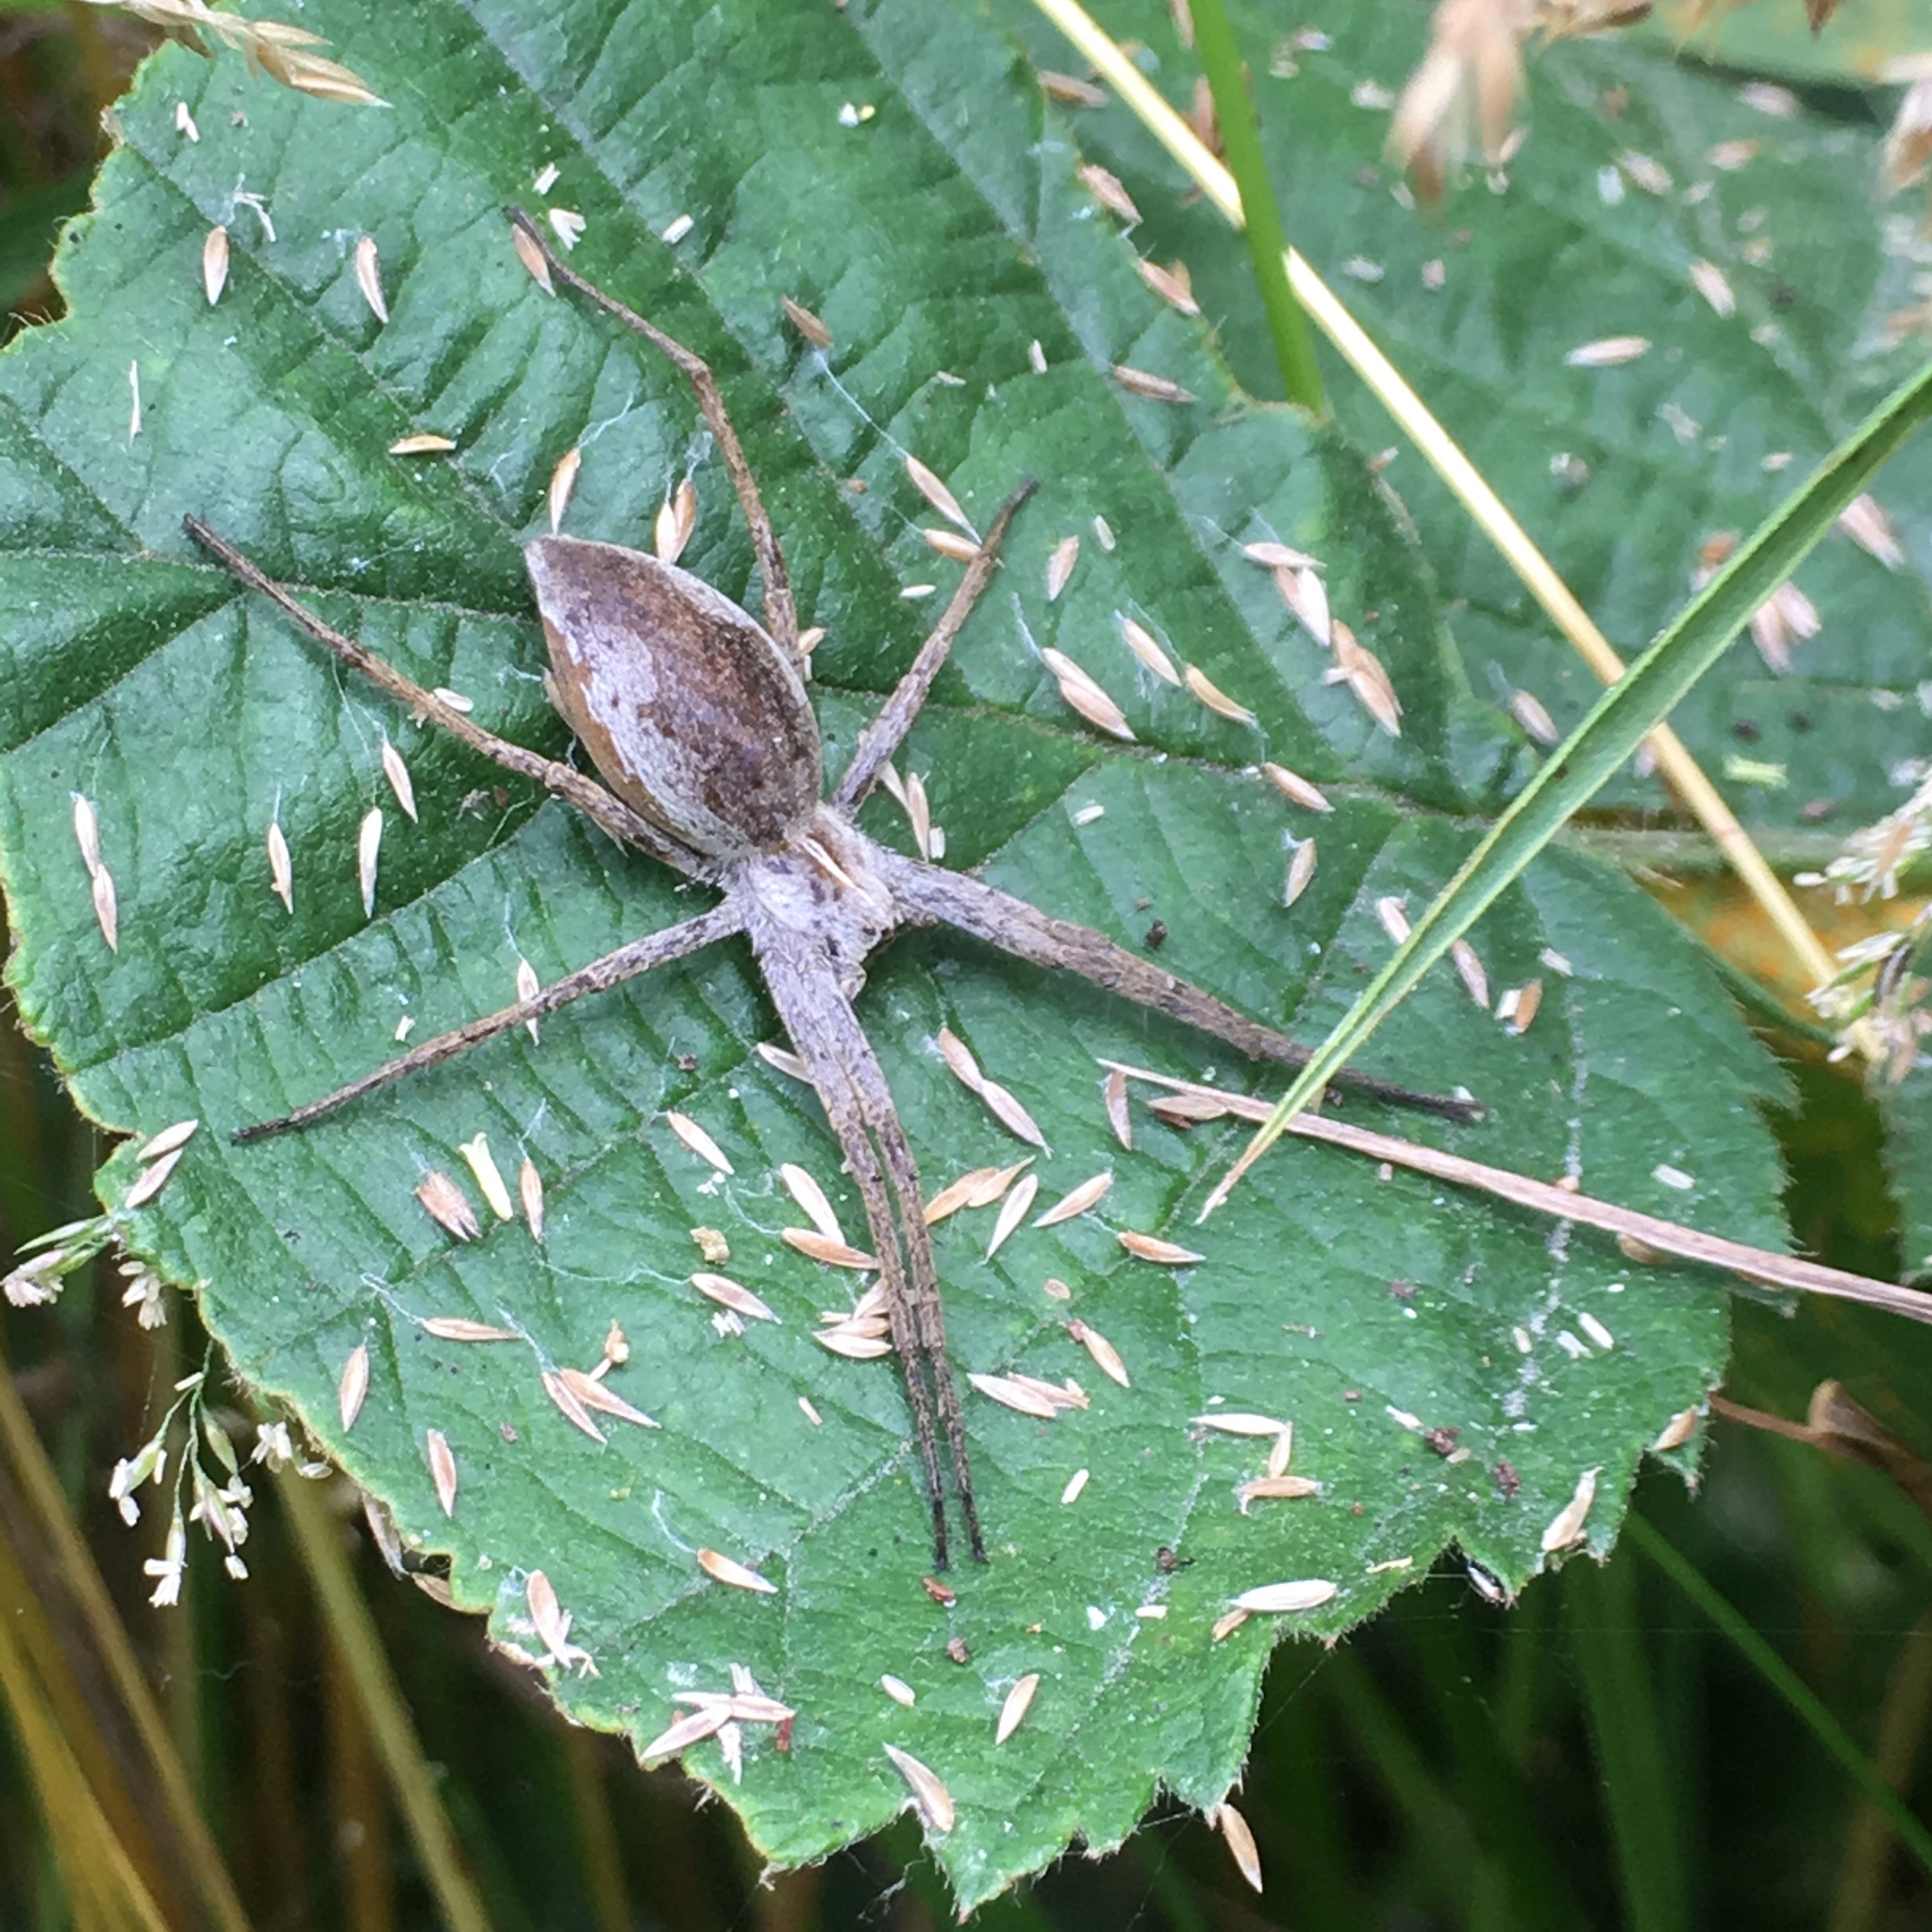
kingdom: Animalia
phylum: Arthropoda
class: Arachnida
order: Araneae
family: Pisauridae
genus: Pisaura
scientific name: Pisaura mirabilis
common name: Tent spider
